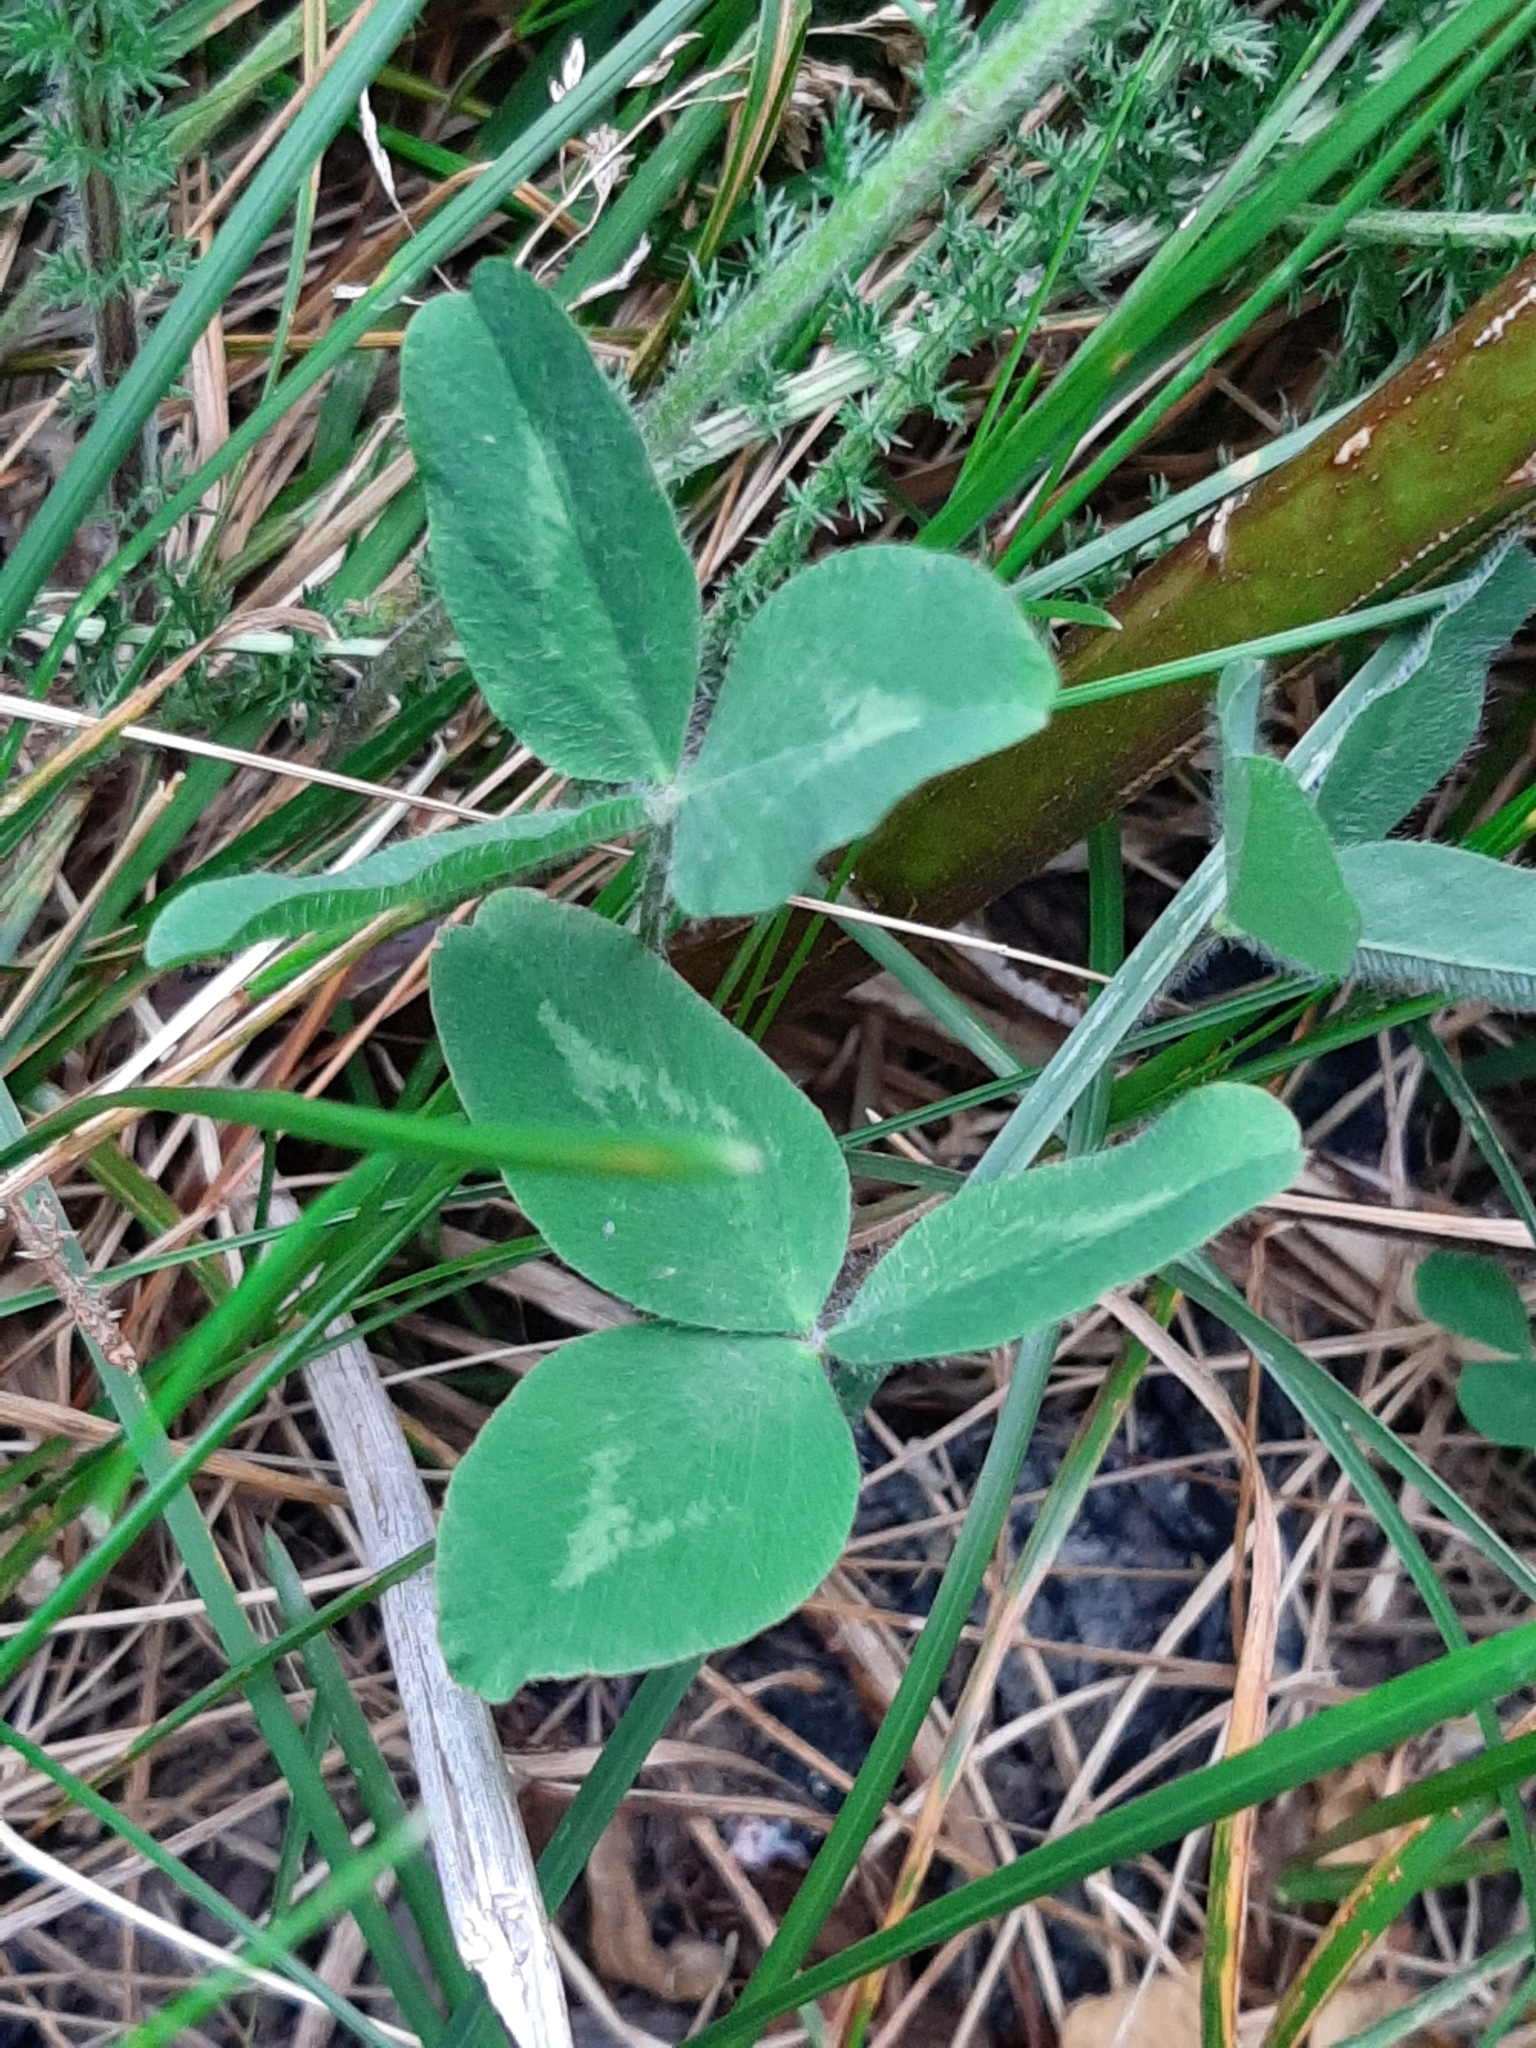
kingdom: Plantae
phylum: Tracheophyta
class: Magnoliopsida
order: Fabales
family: Fabaceae
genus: Trifolium
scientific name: Trifolium pratense
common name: Red clover
